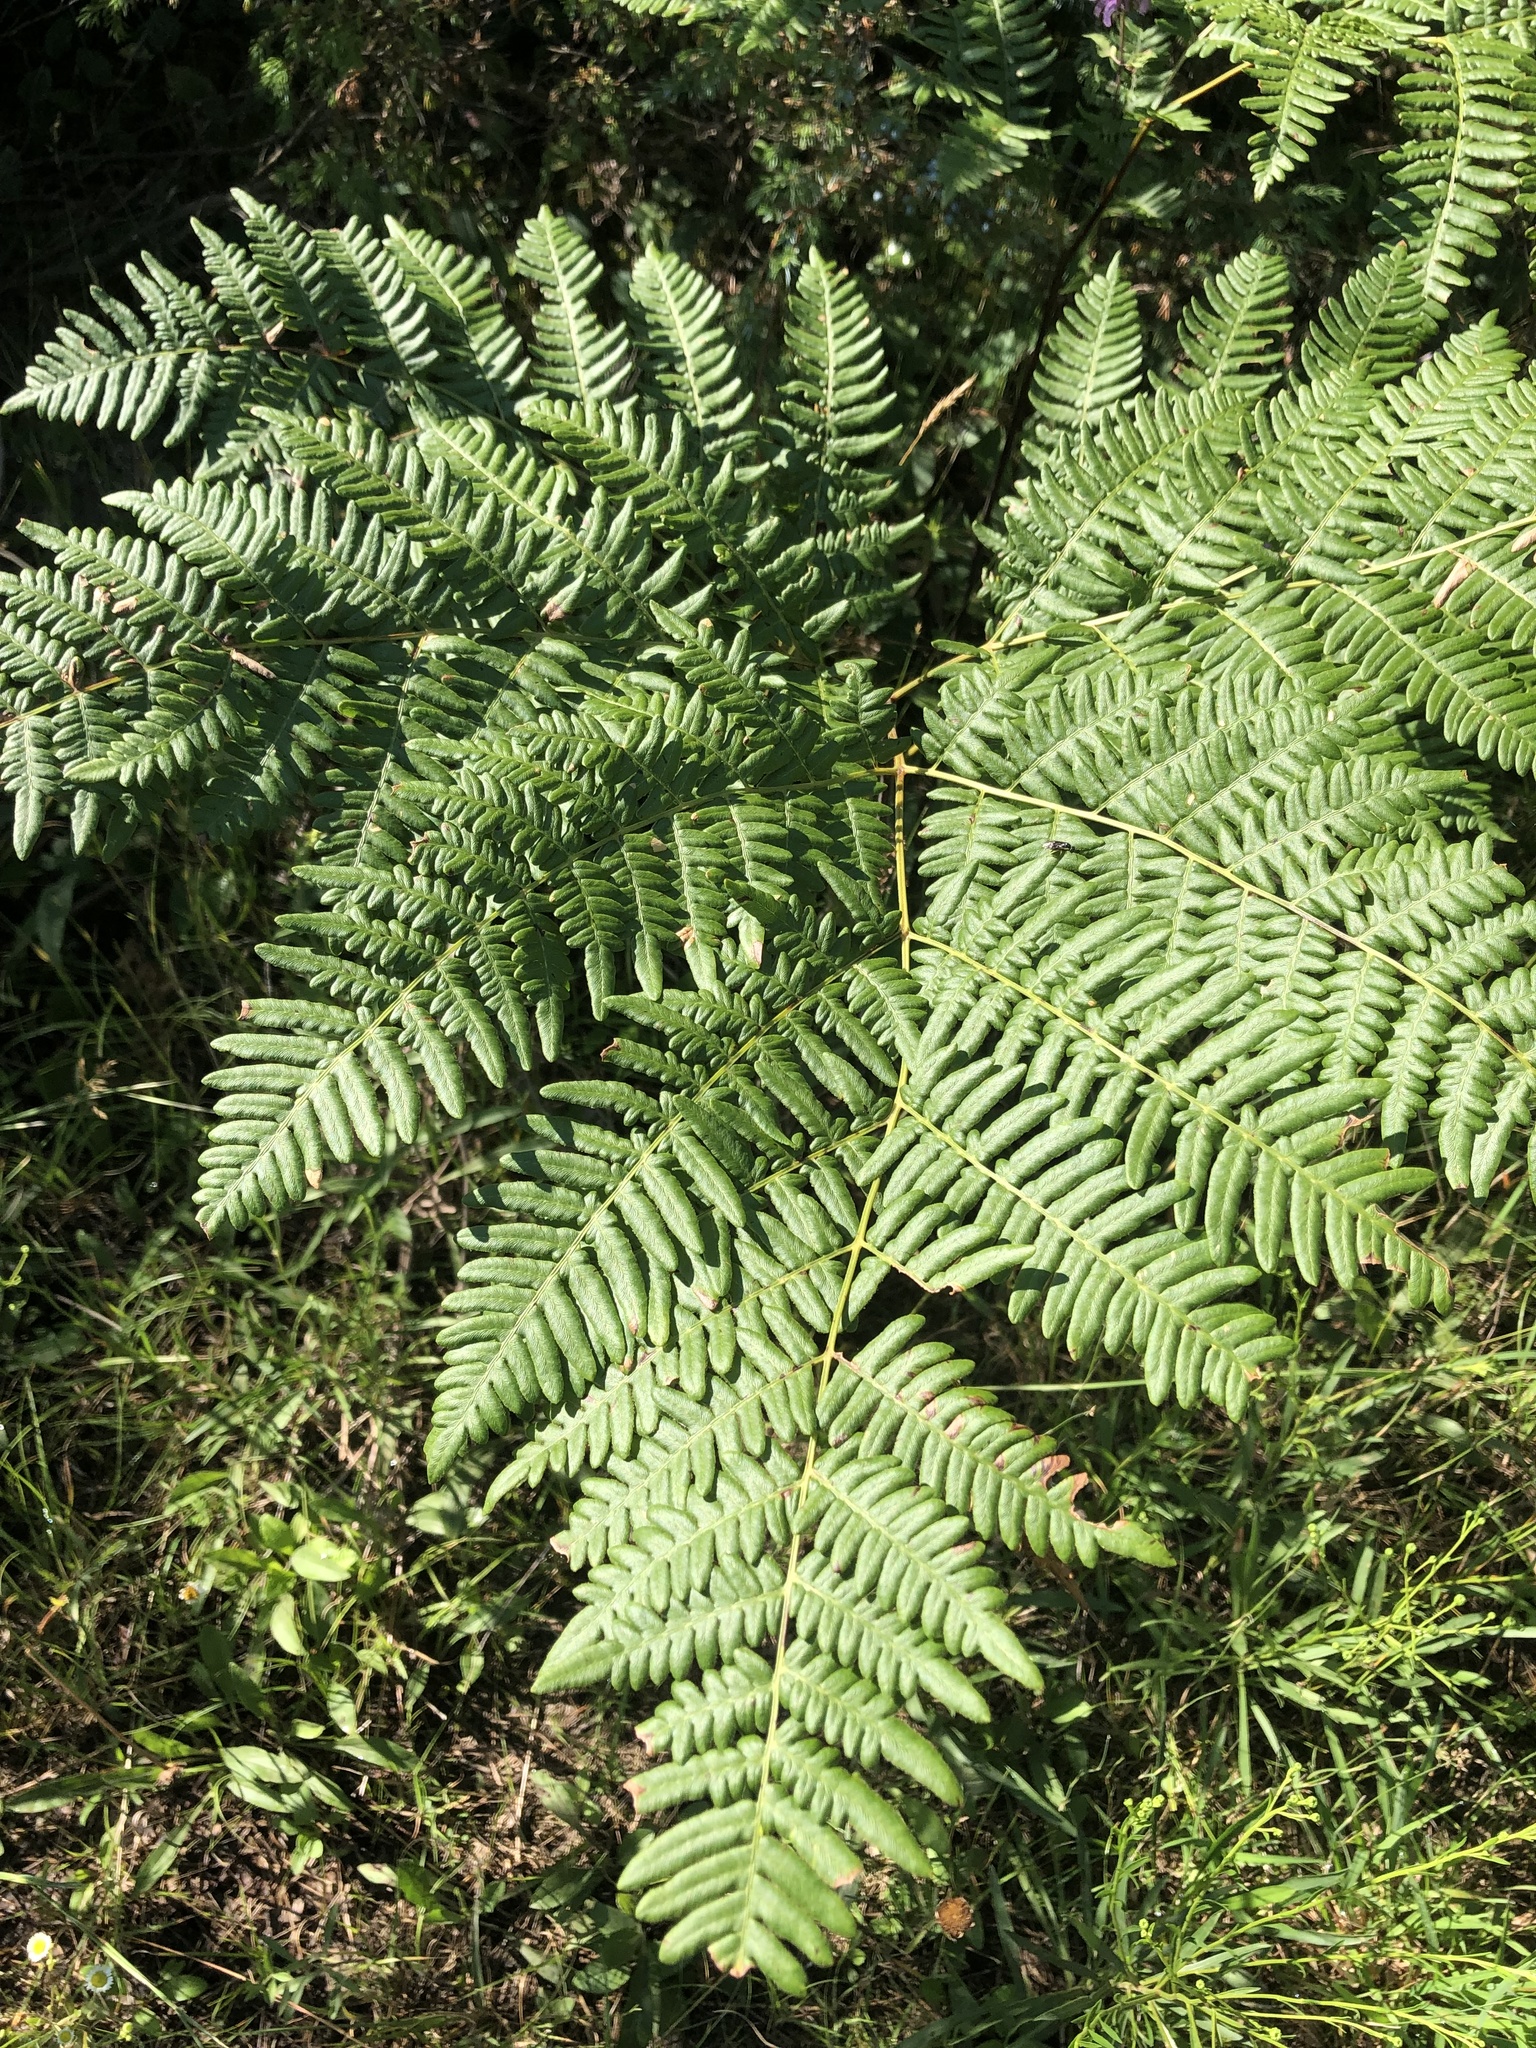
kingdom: Plantae
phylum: Tracheophyta
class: Polypodiopsida
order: Polypodiales
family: Dennstaedtiaceae
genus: Pteridium
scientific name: Pteridium aquilinum
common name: Bracken
